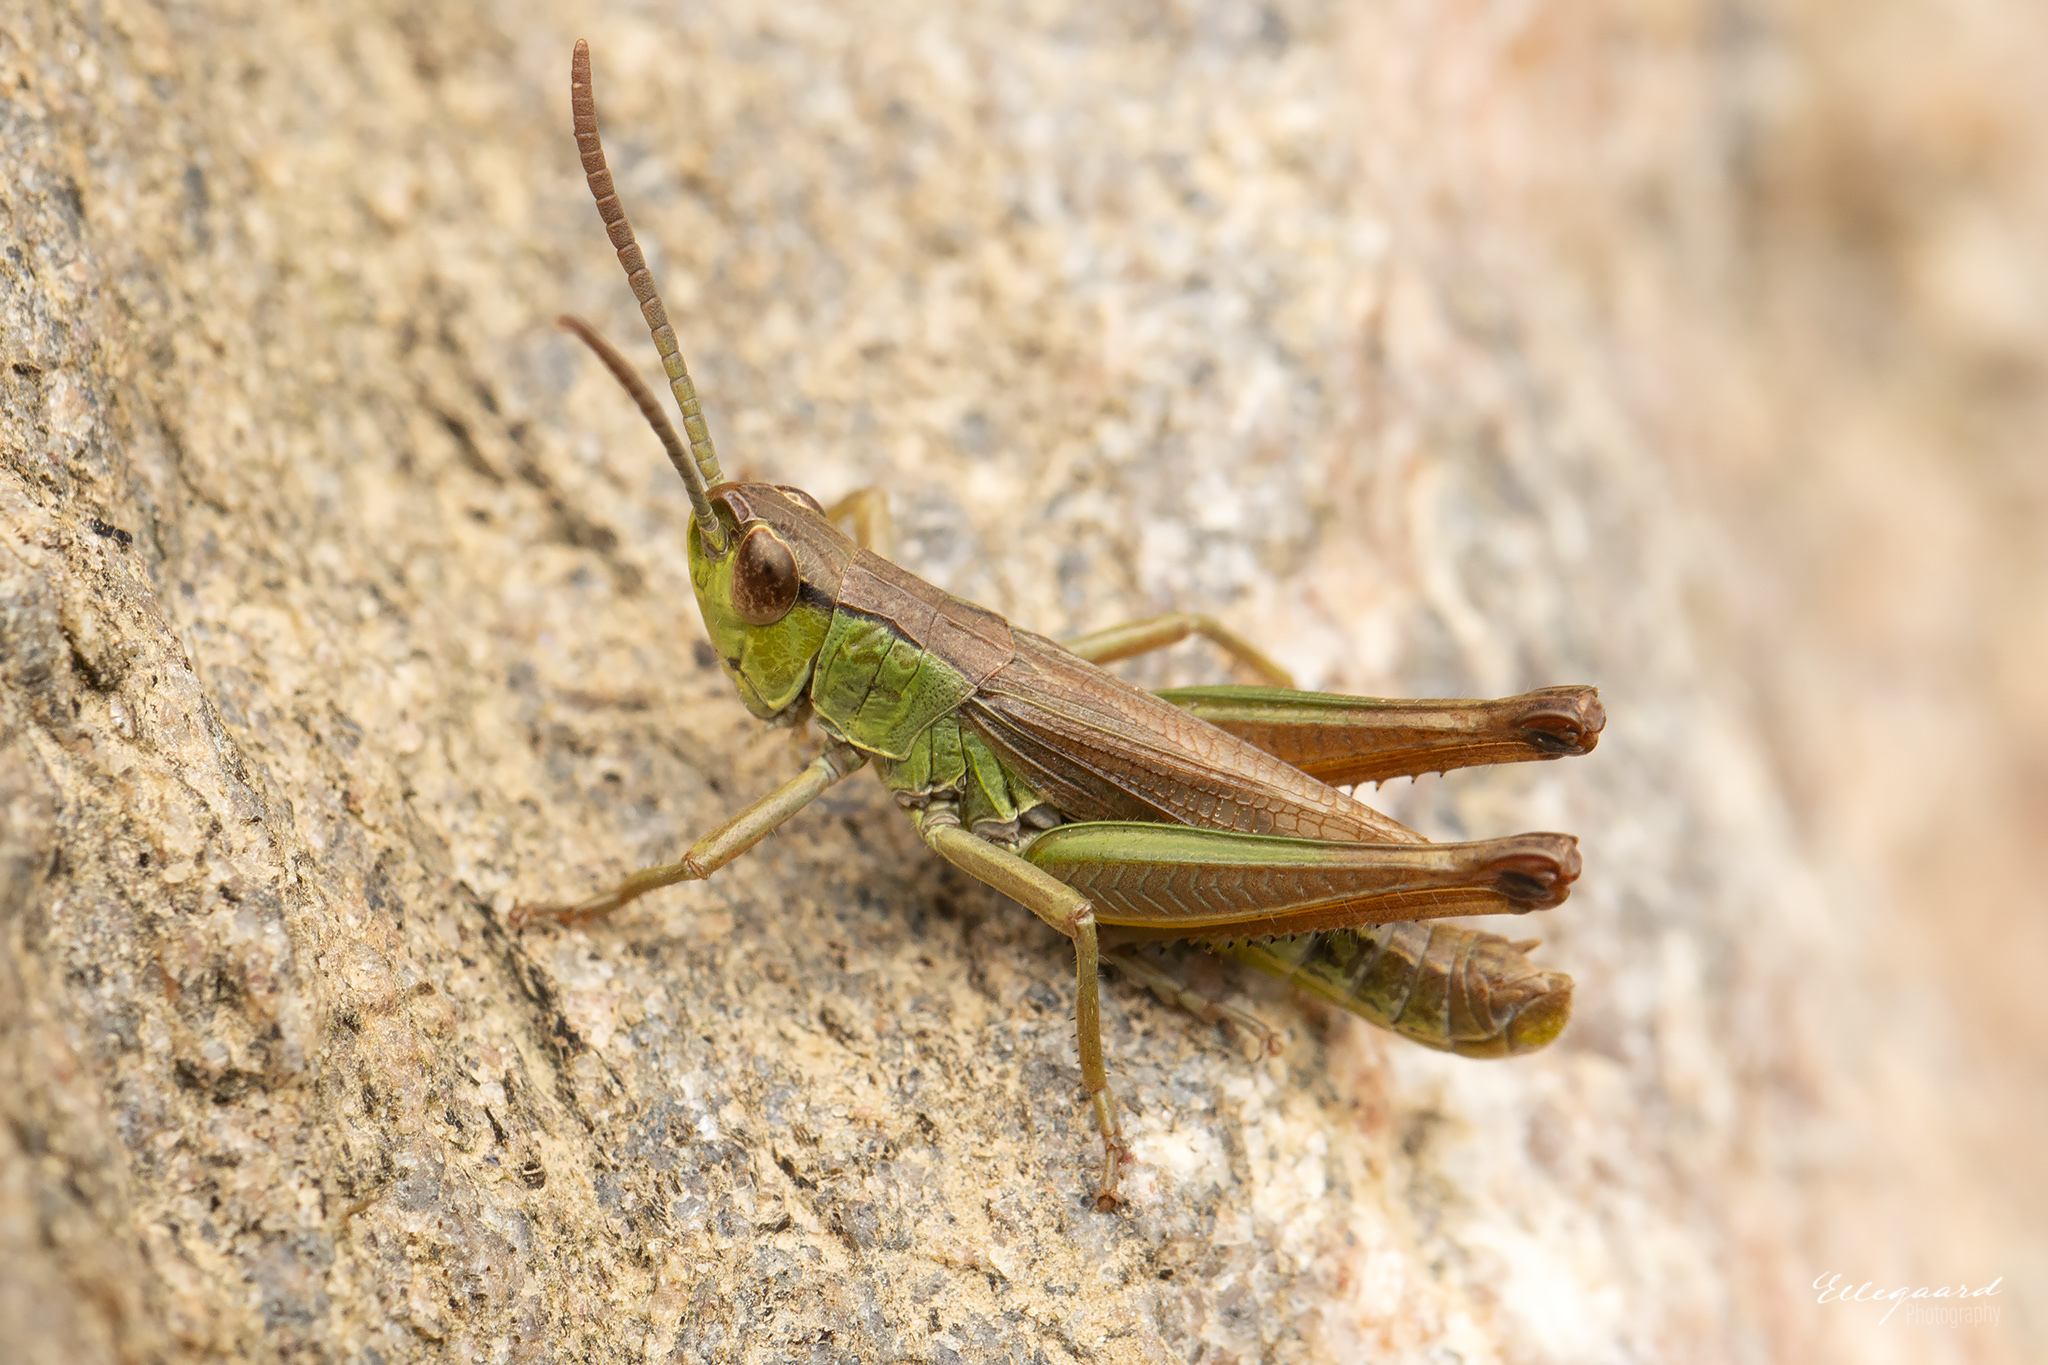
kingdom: Animalia
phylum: Arthropoda
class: Insecta
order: Orthoptera
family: Acrididae
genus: Pseudochorthippus
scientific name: Pseudochorthippus parallelus
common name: Meadow grasshopper
